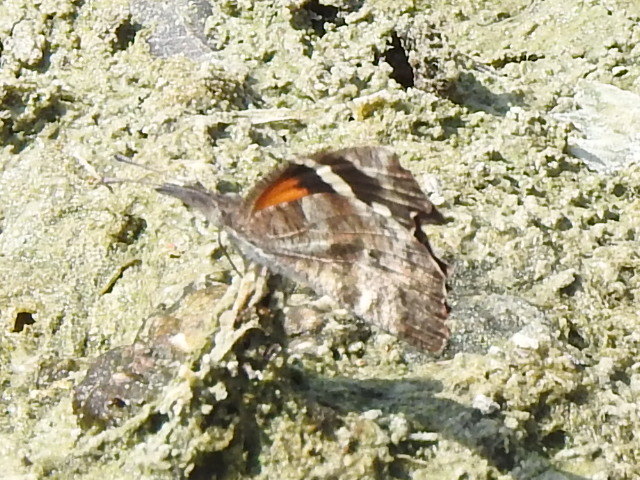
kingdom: Animalia
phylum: Arthropoda
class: Insecta
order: Lepidoptera
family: Nymphalidae
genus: Libytheana
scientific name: Libytheana carinenta
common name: American snout
